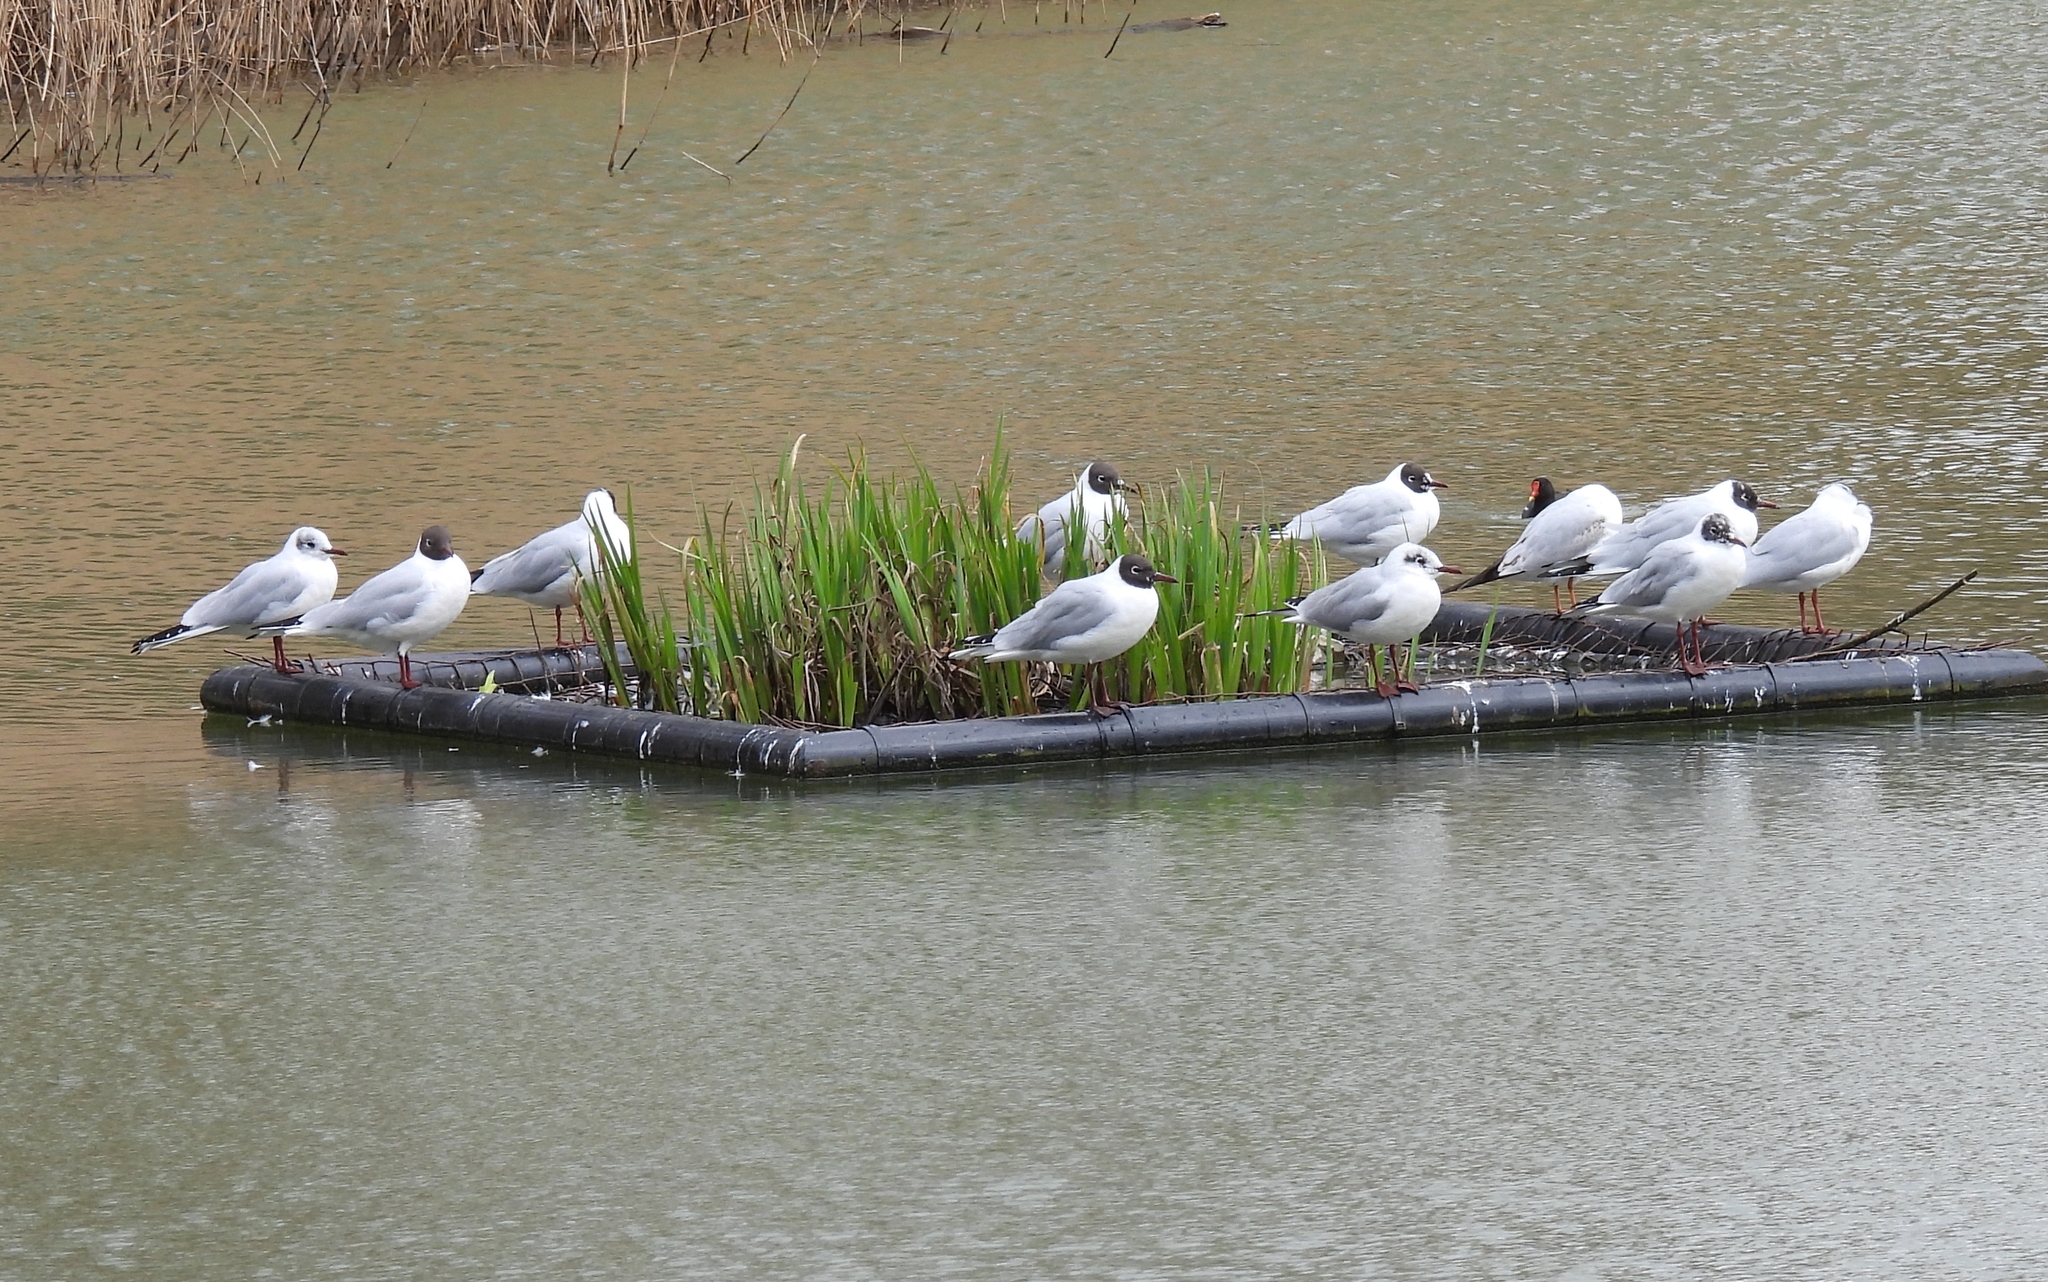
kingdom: Animalia
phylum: Chordata
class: Aves
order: Charadriiformes
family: Laridae
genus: Chroicocephalus
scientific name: Chroicocephalus ridibundus
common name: Black-headed gull
